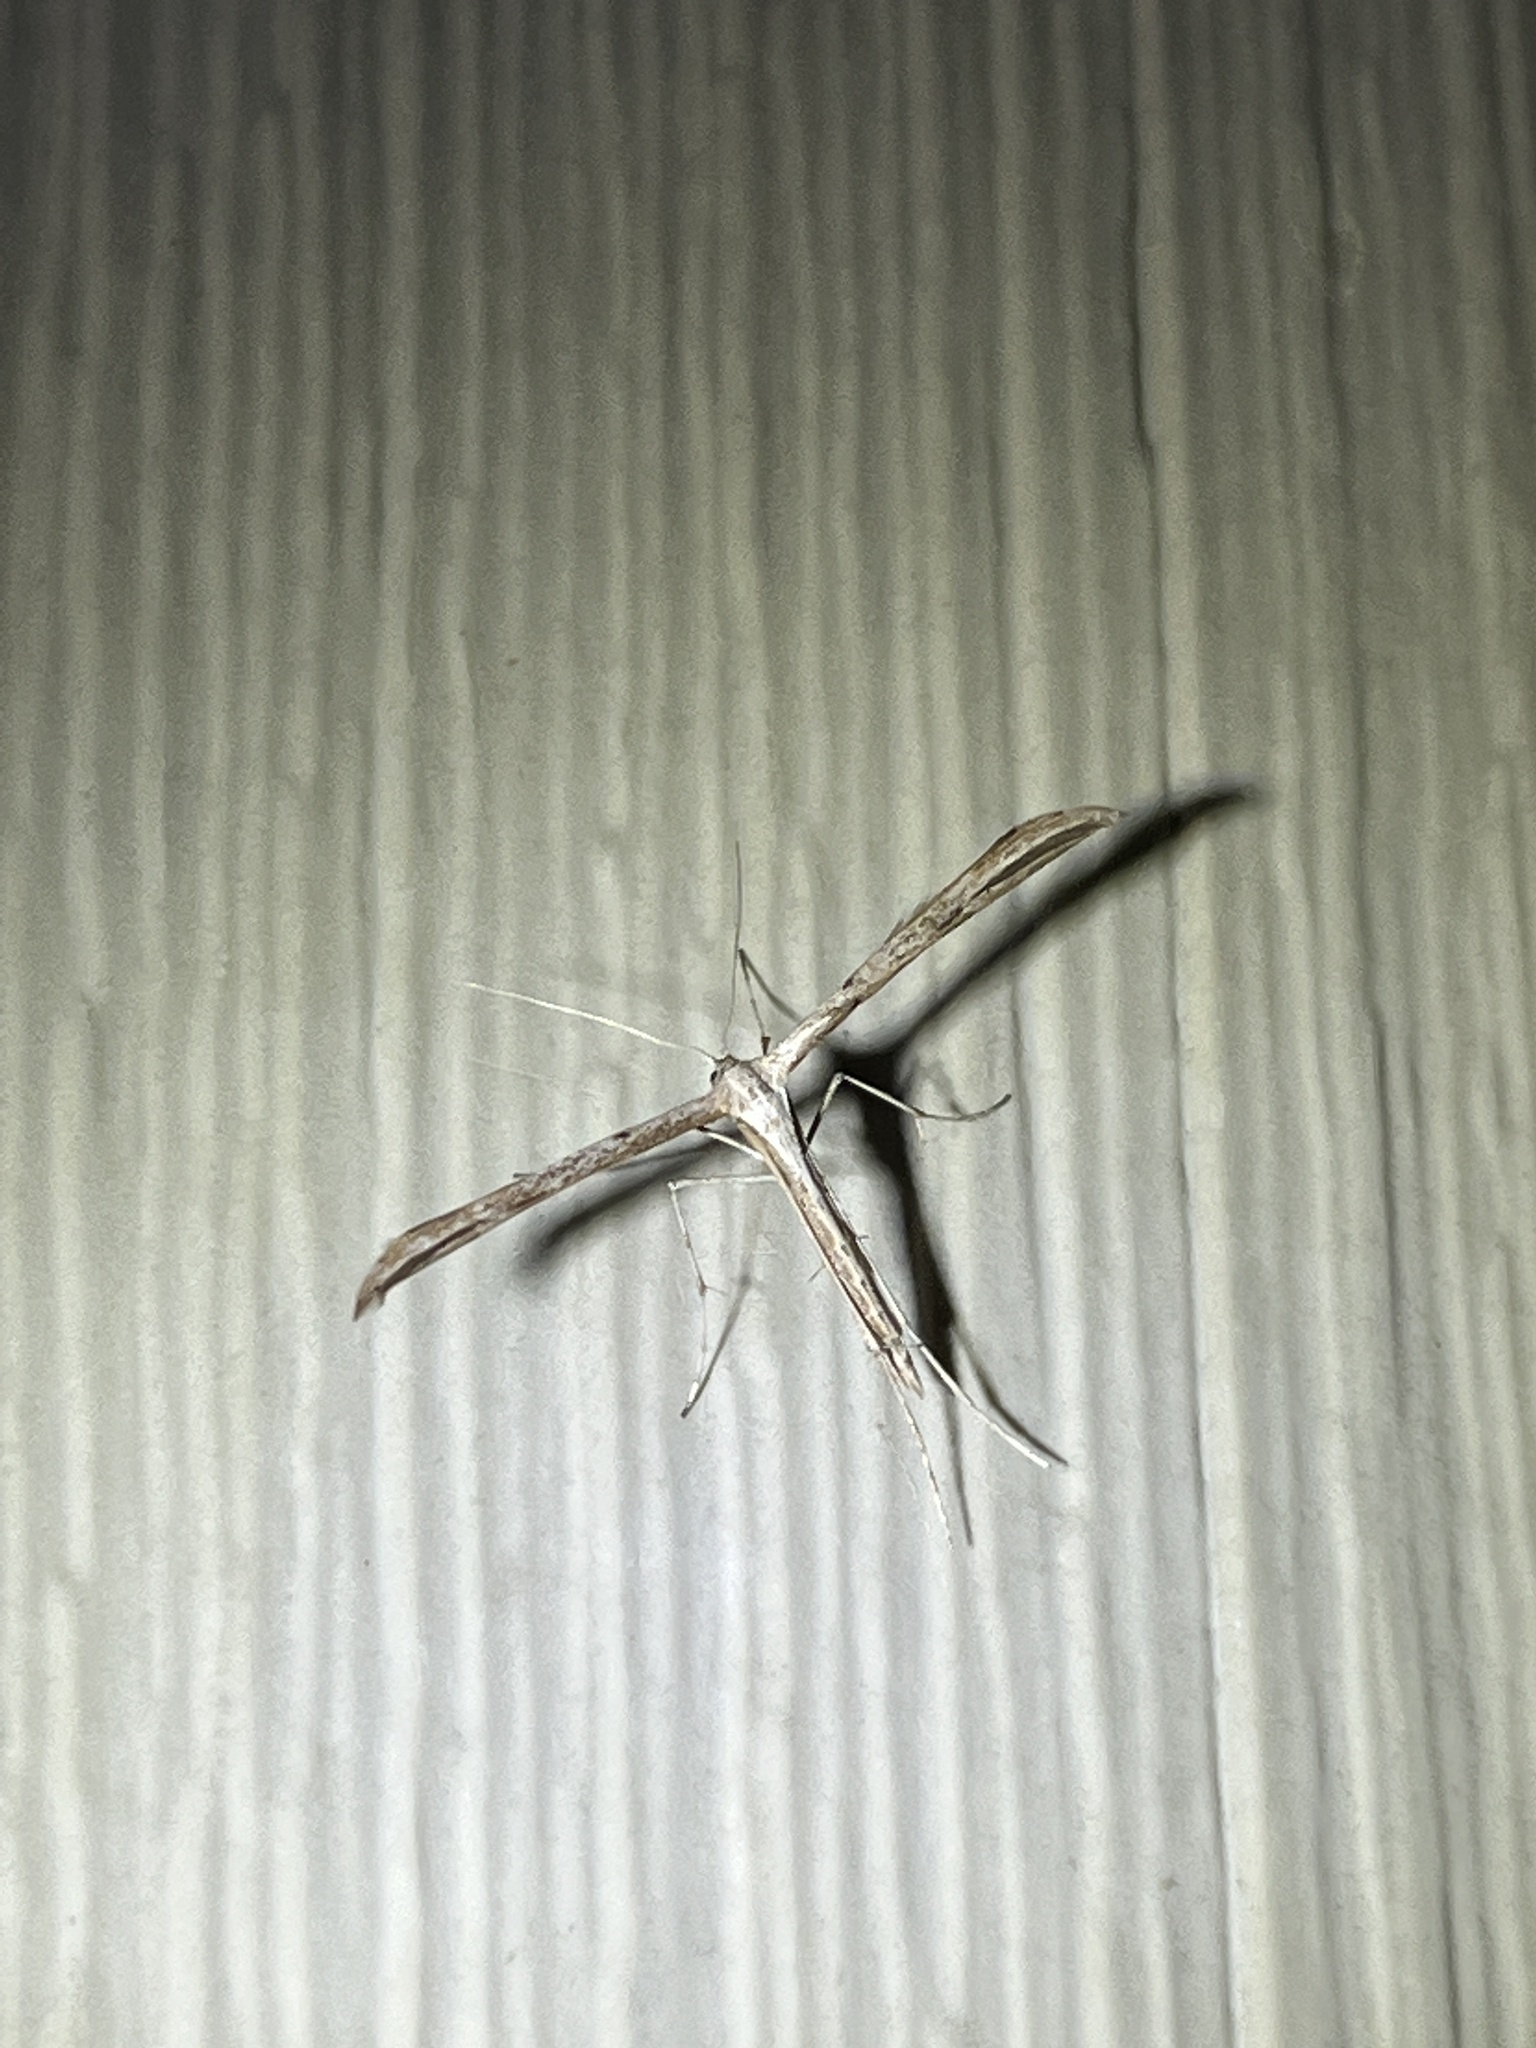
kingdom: Animalia
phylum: Arthropoda
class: Insecta
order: Lepidoptera
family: Pterophoridae
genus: Emmelina
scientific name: Emmelina monodactyla
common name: Common plume
